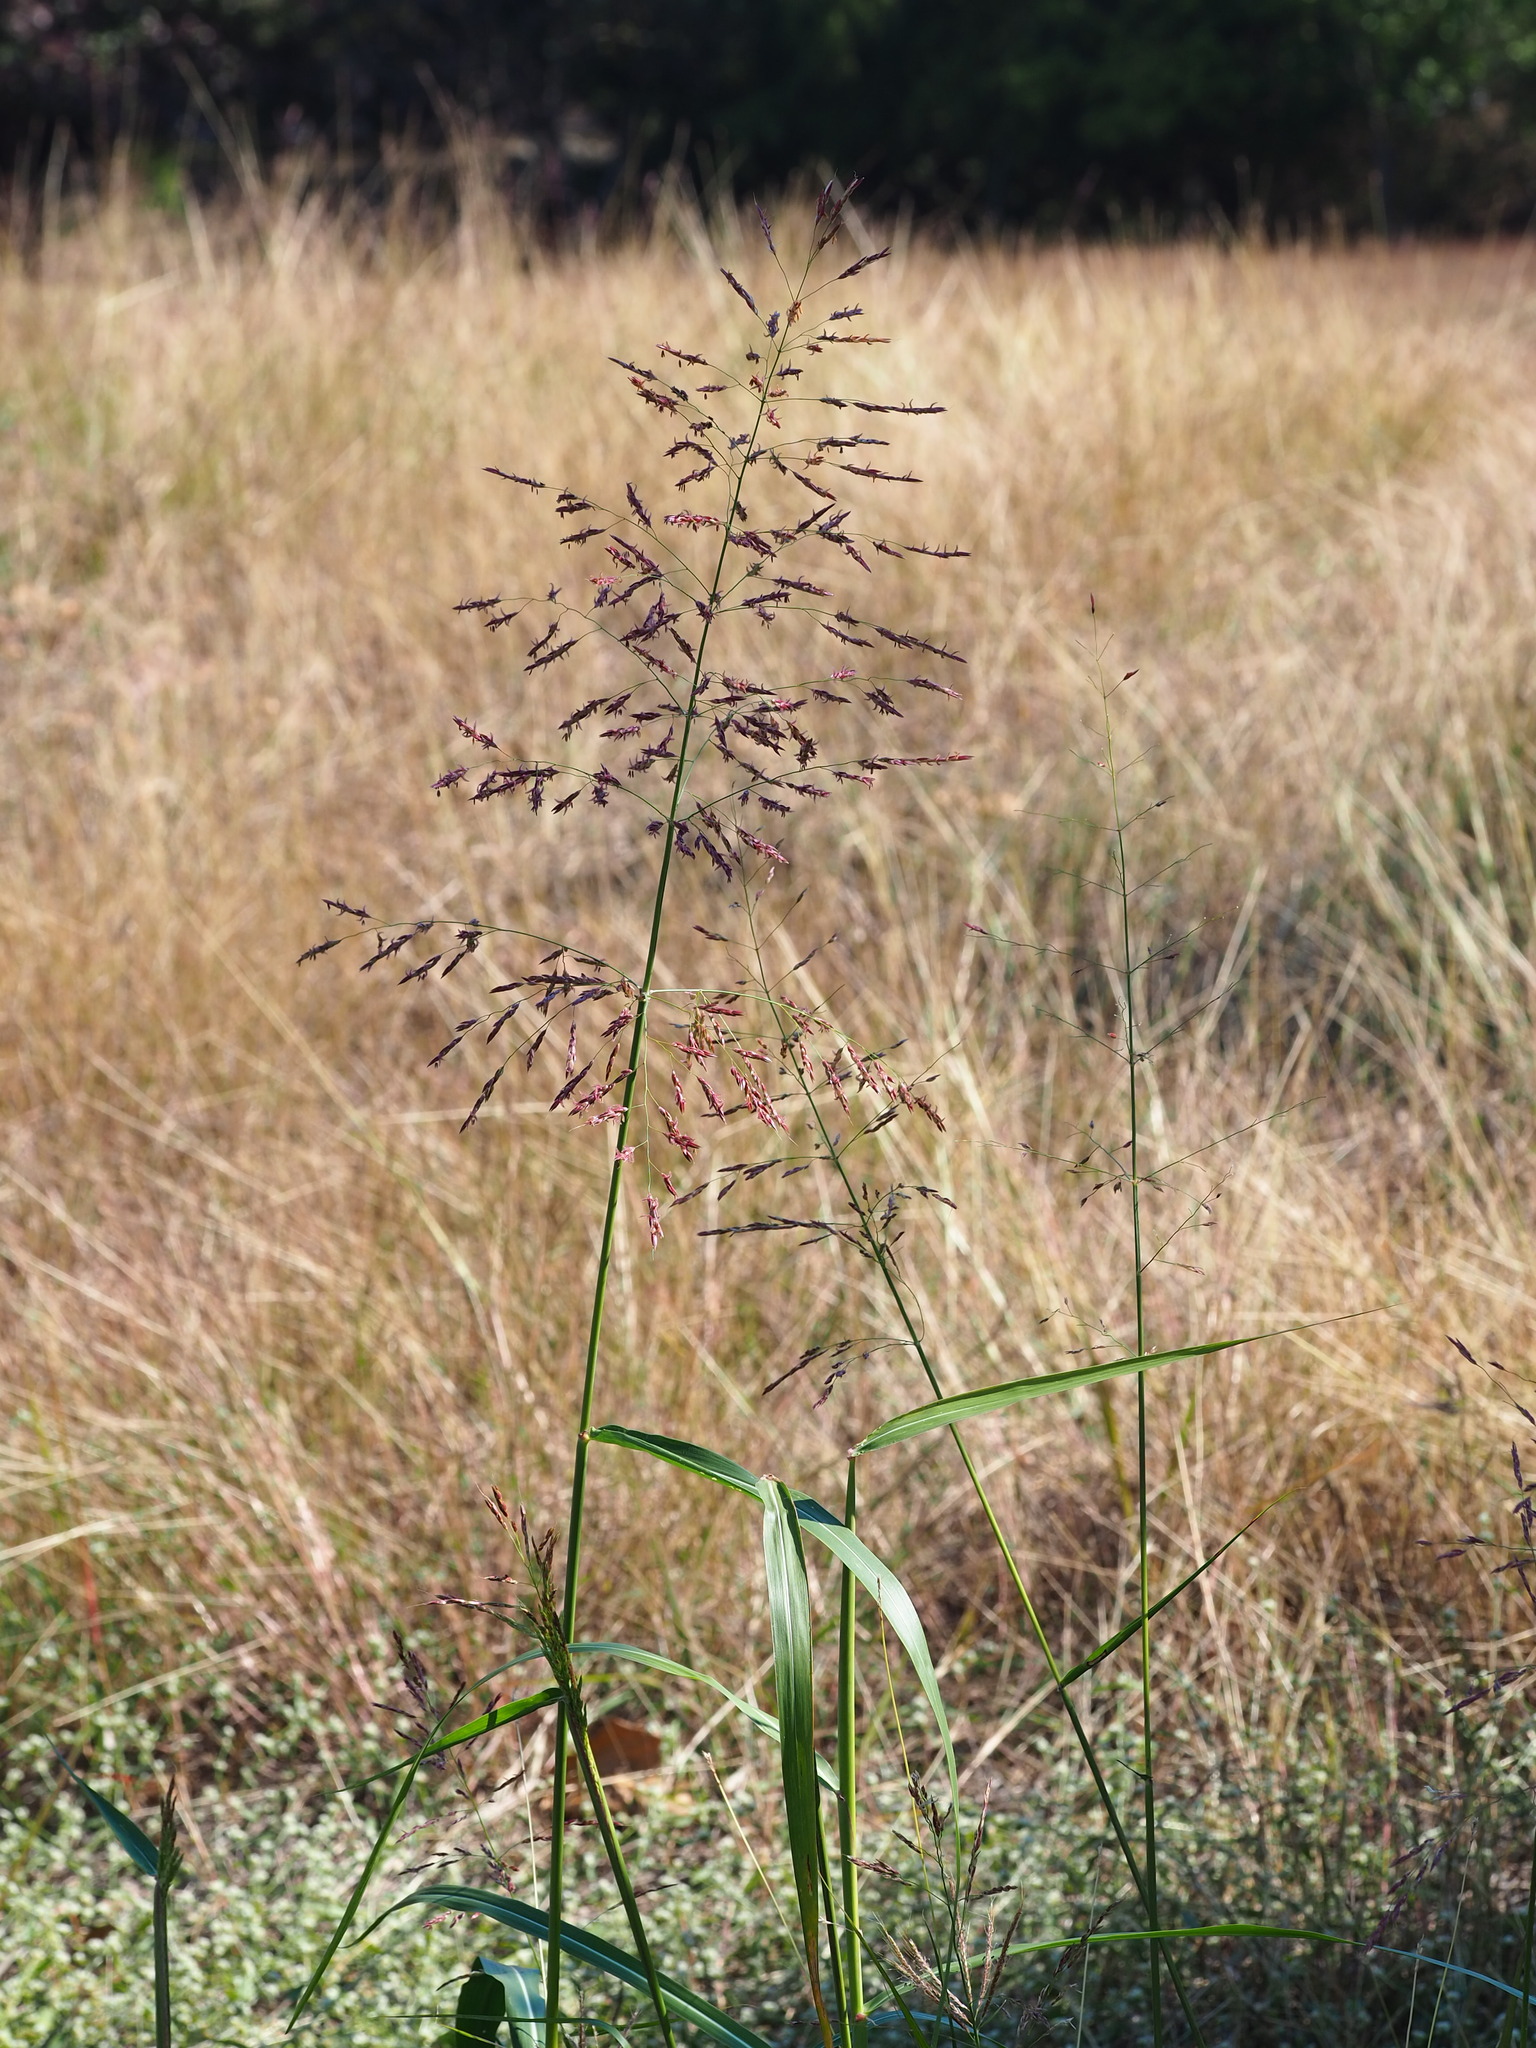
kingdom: Plantae
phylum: Tracheophyta
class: Liliopsida
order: Poales
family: Poaceae
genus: Sorghum
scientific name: Sorghum halepense
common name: Johnson-grass
